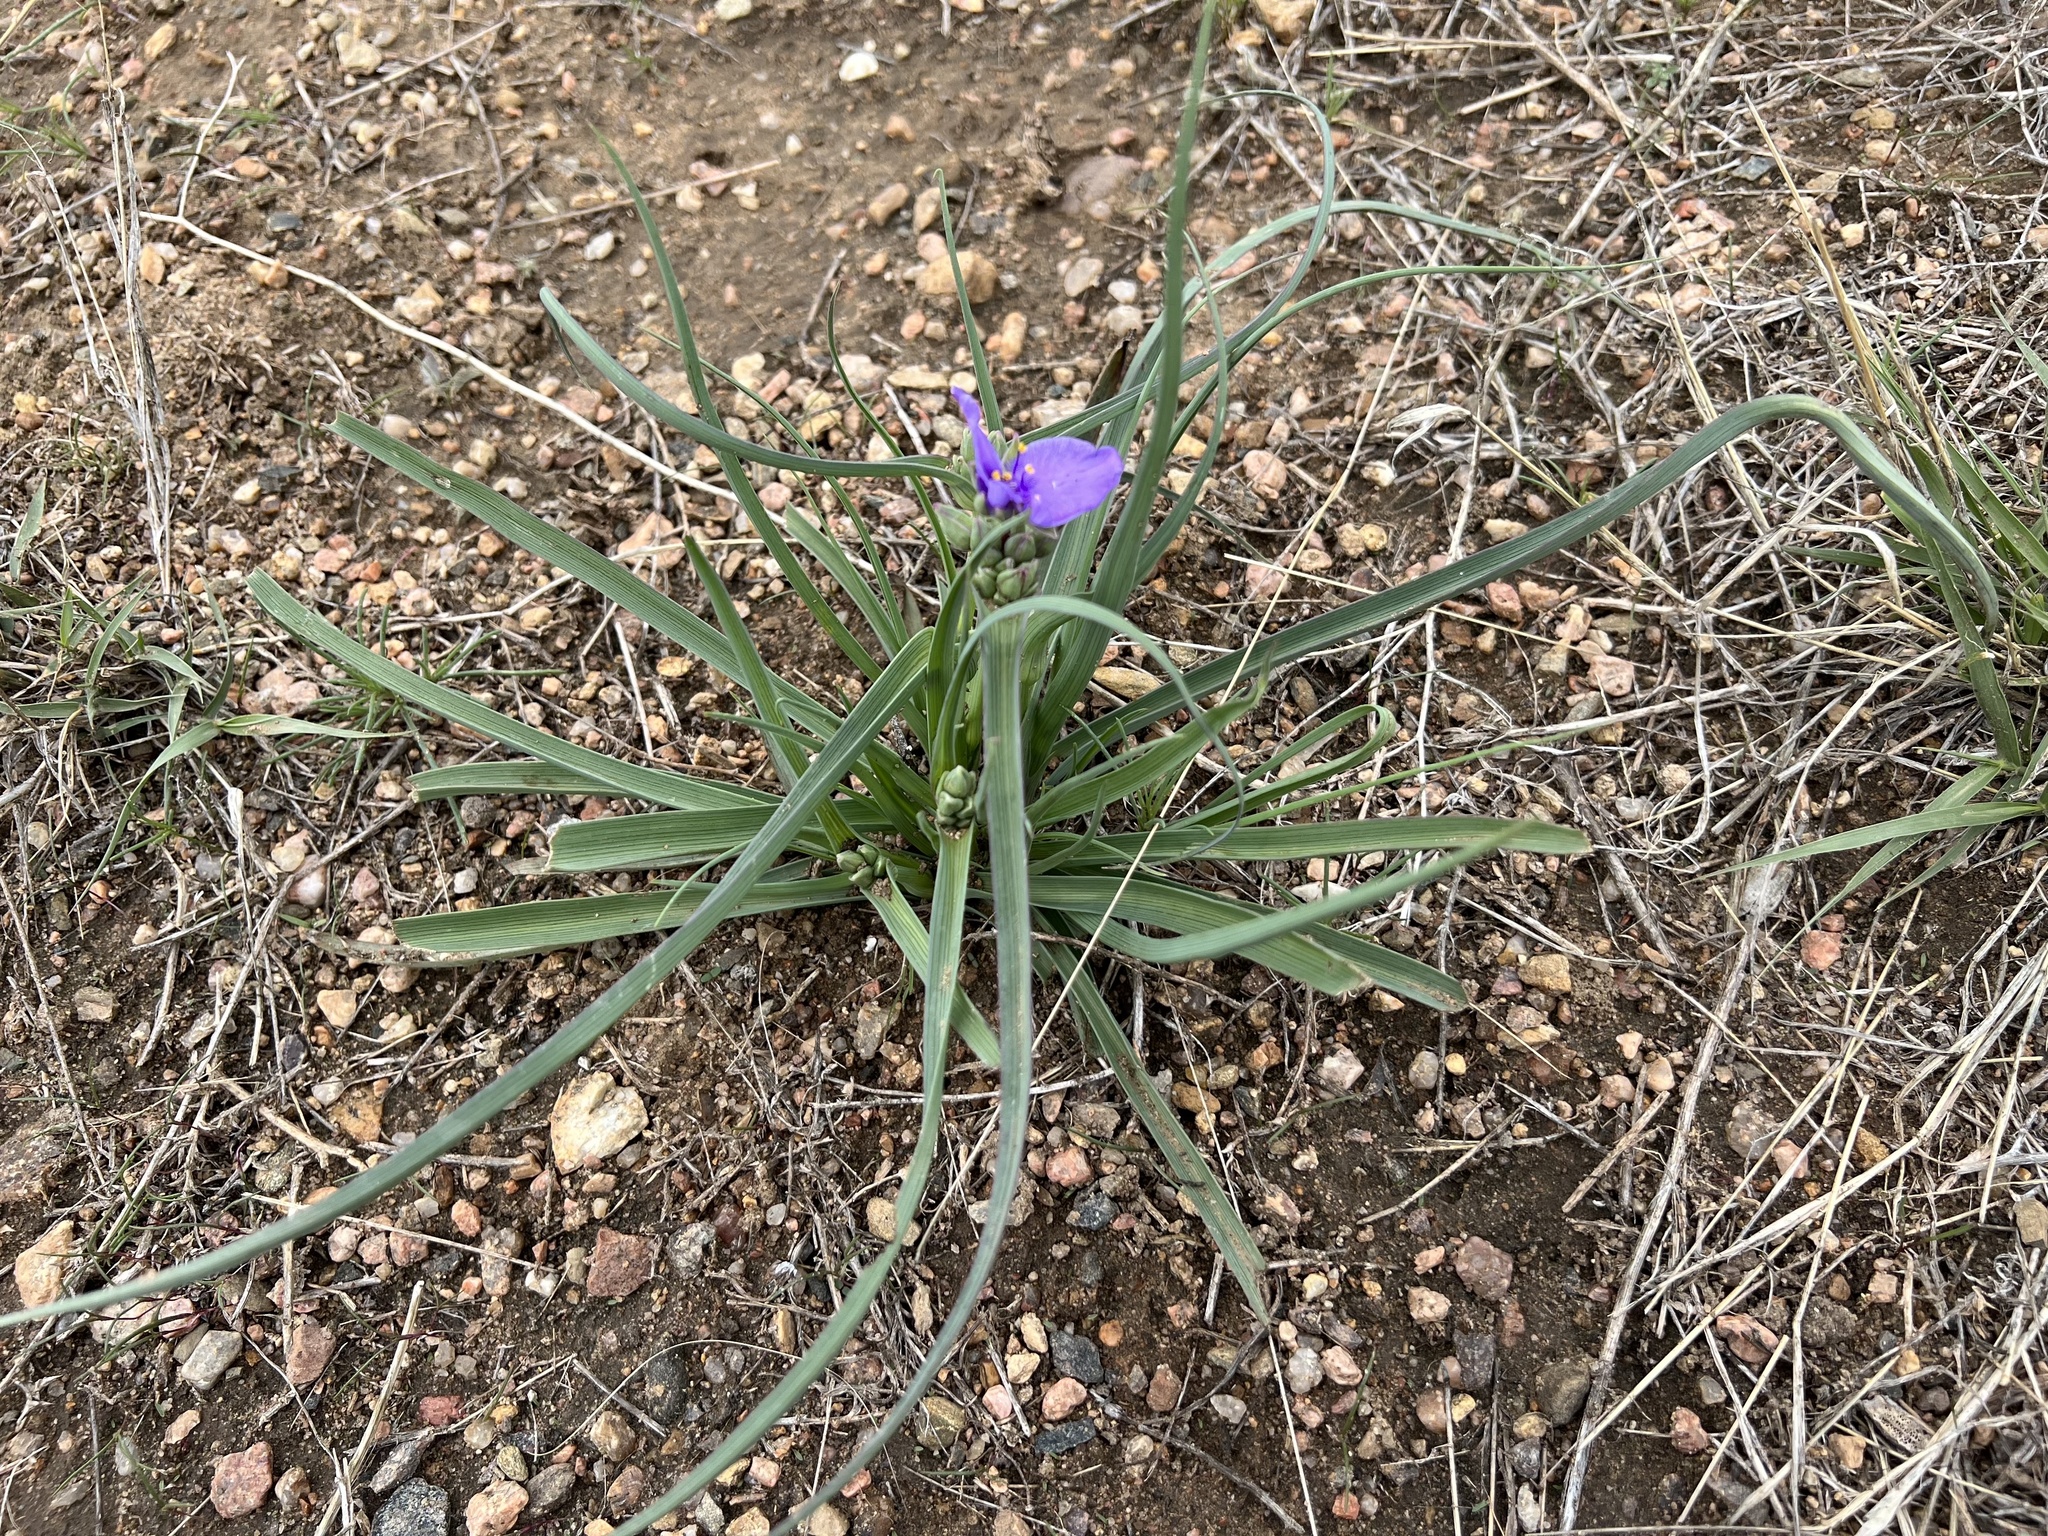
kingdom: Plantae
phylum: Tracheophyta
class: Liliopsida
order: Commelinales
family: Commelinaceae
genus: Tradescantia
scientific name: Tradescantia occidentalis
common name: Prairie spiderwort
